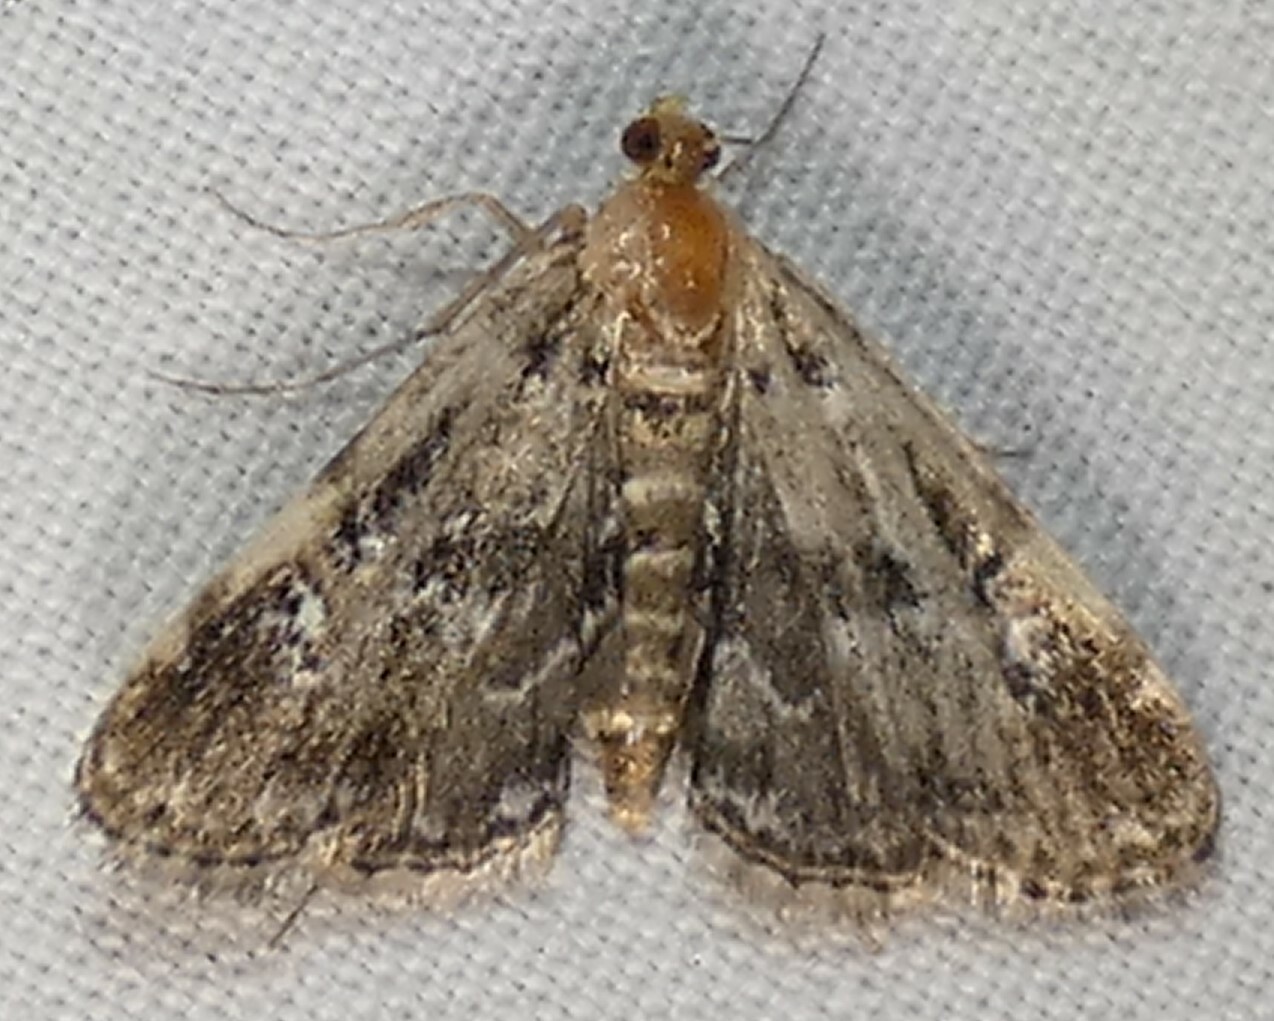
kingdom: Animalia
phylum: Arthropoda
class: Insecta
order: Lepidoptera
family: Crambidae
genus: Elophila
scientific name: Elophila obliteralis
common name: Waterlily leafcutter moth
